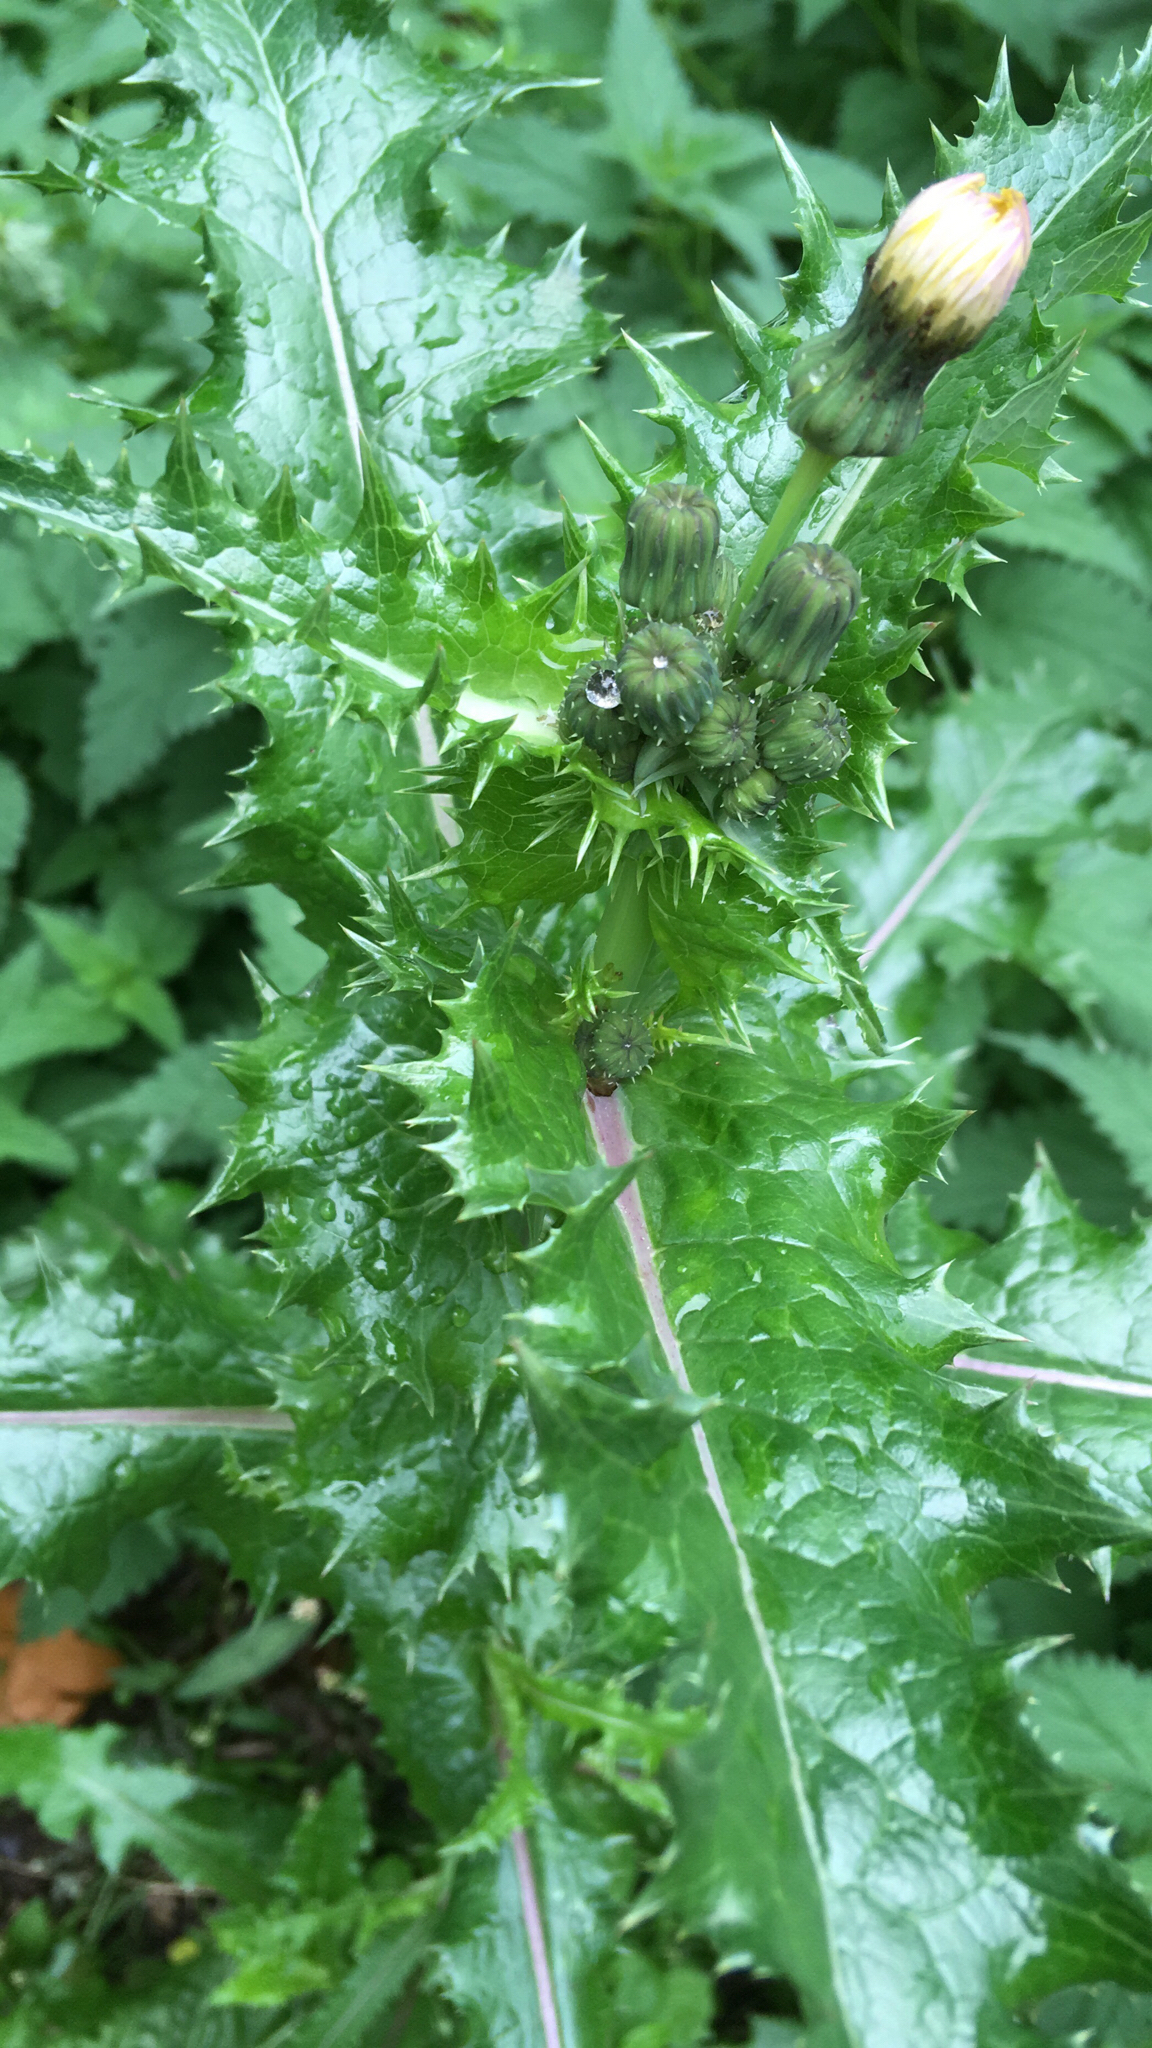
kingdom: Plantae
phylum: Tracheophyta
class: Magnoliopsida
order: Asterales
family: Asteraceae
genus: Sonchus
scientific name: Sonchus asper
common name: Prickly sow-thistle
